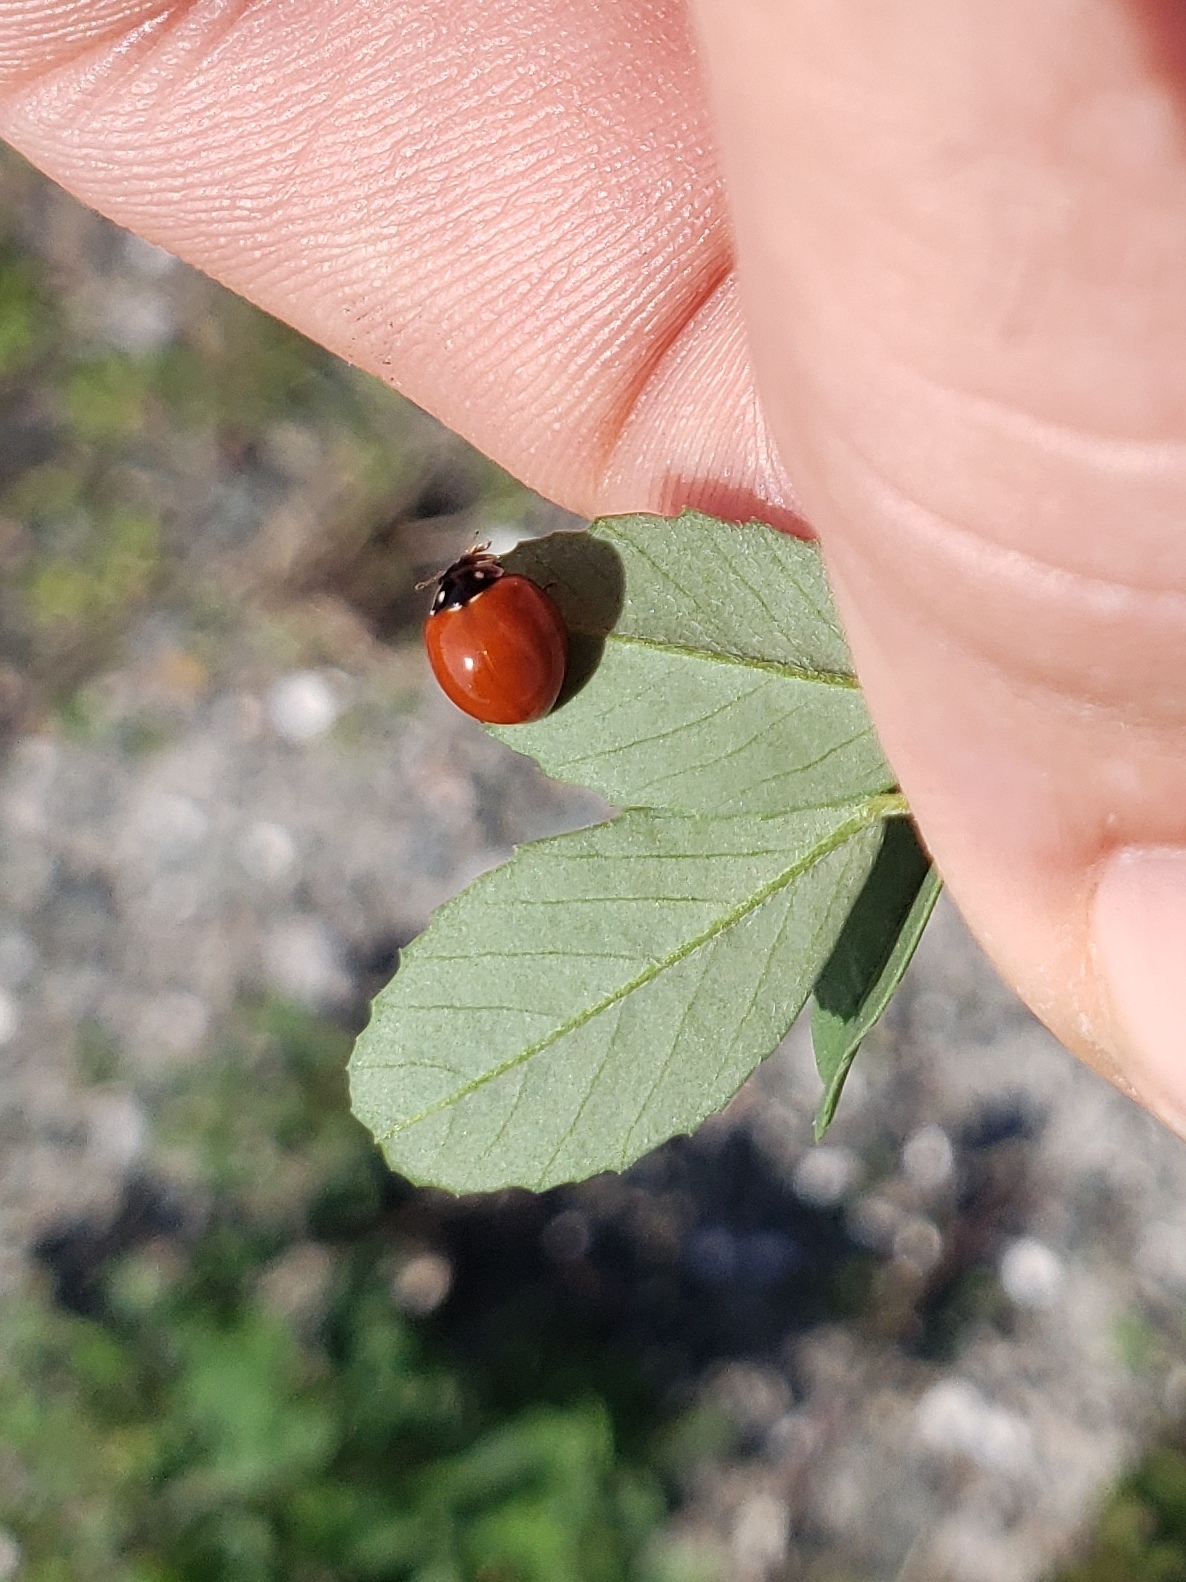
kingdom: Animalia
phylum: Arthropoda
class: Insecta
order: Coleoptera
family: Coccinellidae
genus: Cycloneda
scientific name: Cycloneda sanguinea
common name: Ladybird beetle
